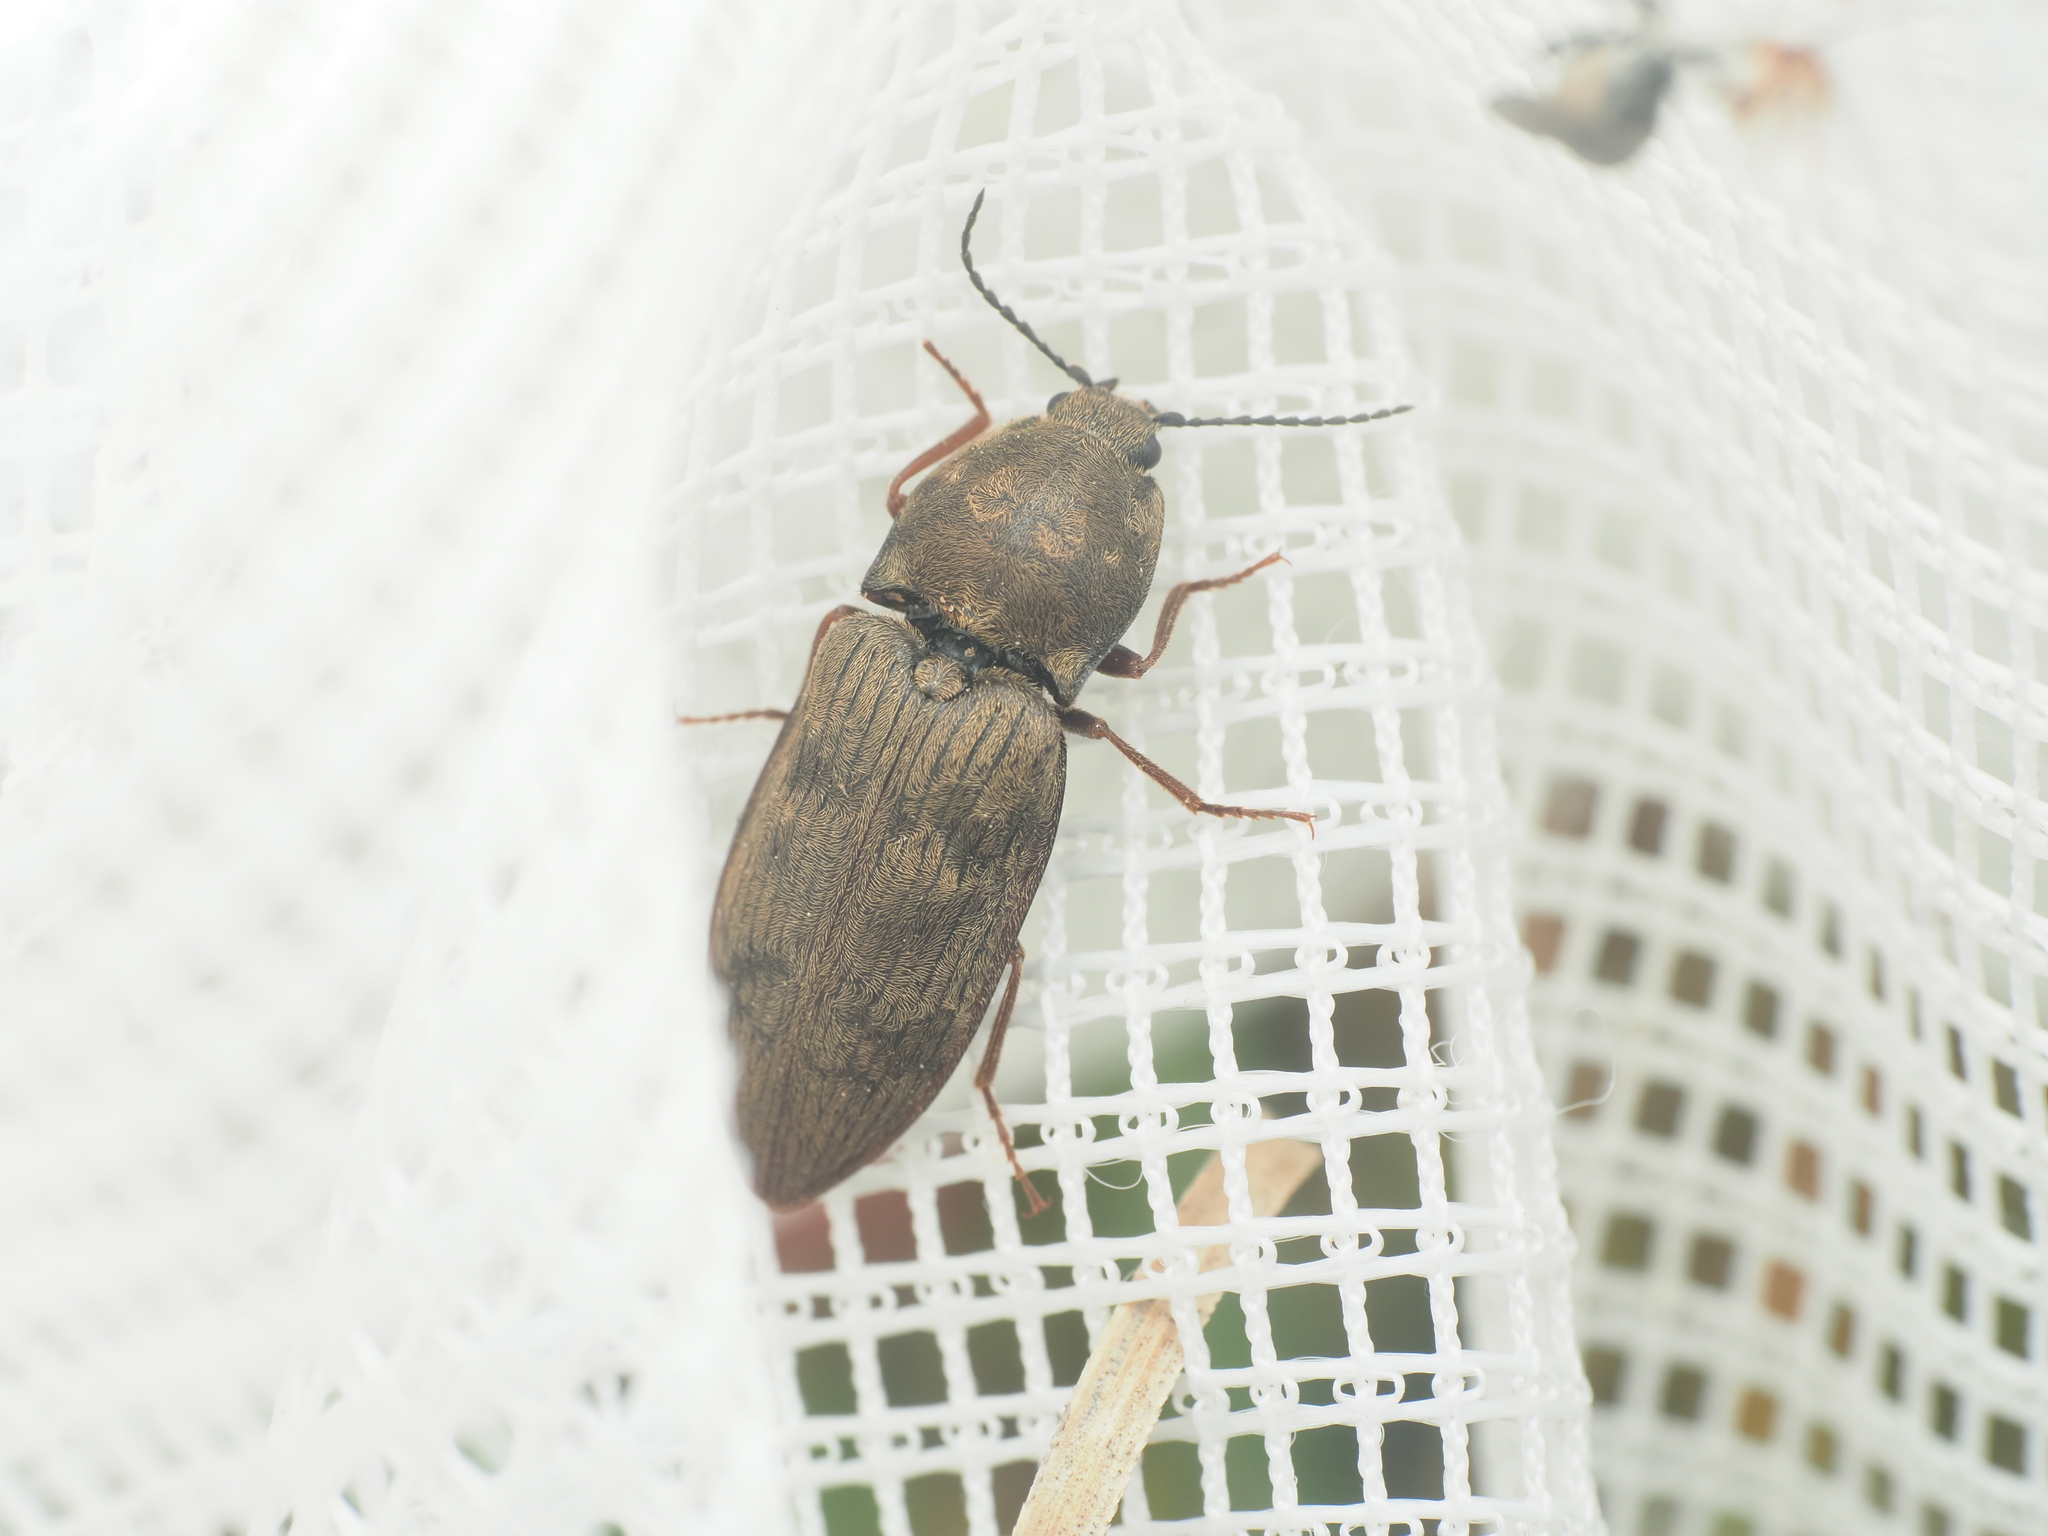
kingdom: Animalia
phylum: Arthropoda
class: Insecta
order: Coleoptera
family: Elateridae
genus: Prosternon
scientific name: Prosternon tessellatum
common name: Chequered click beetle
